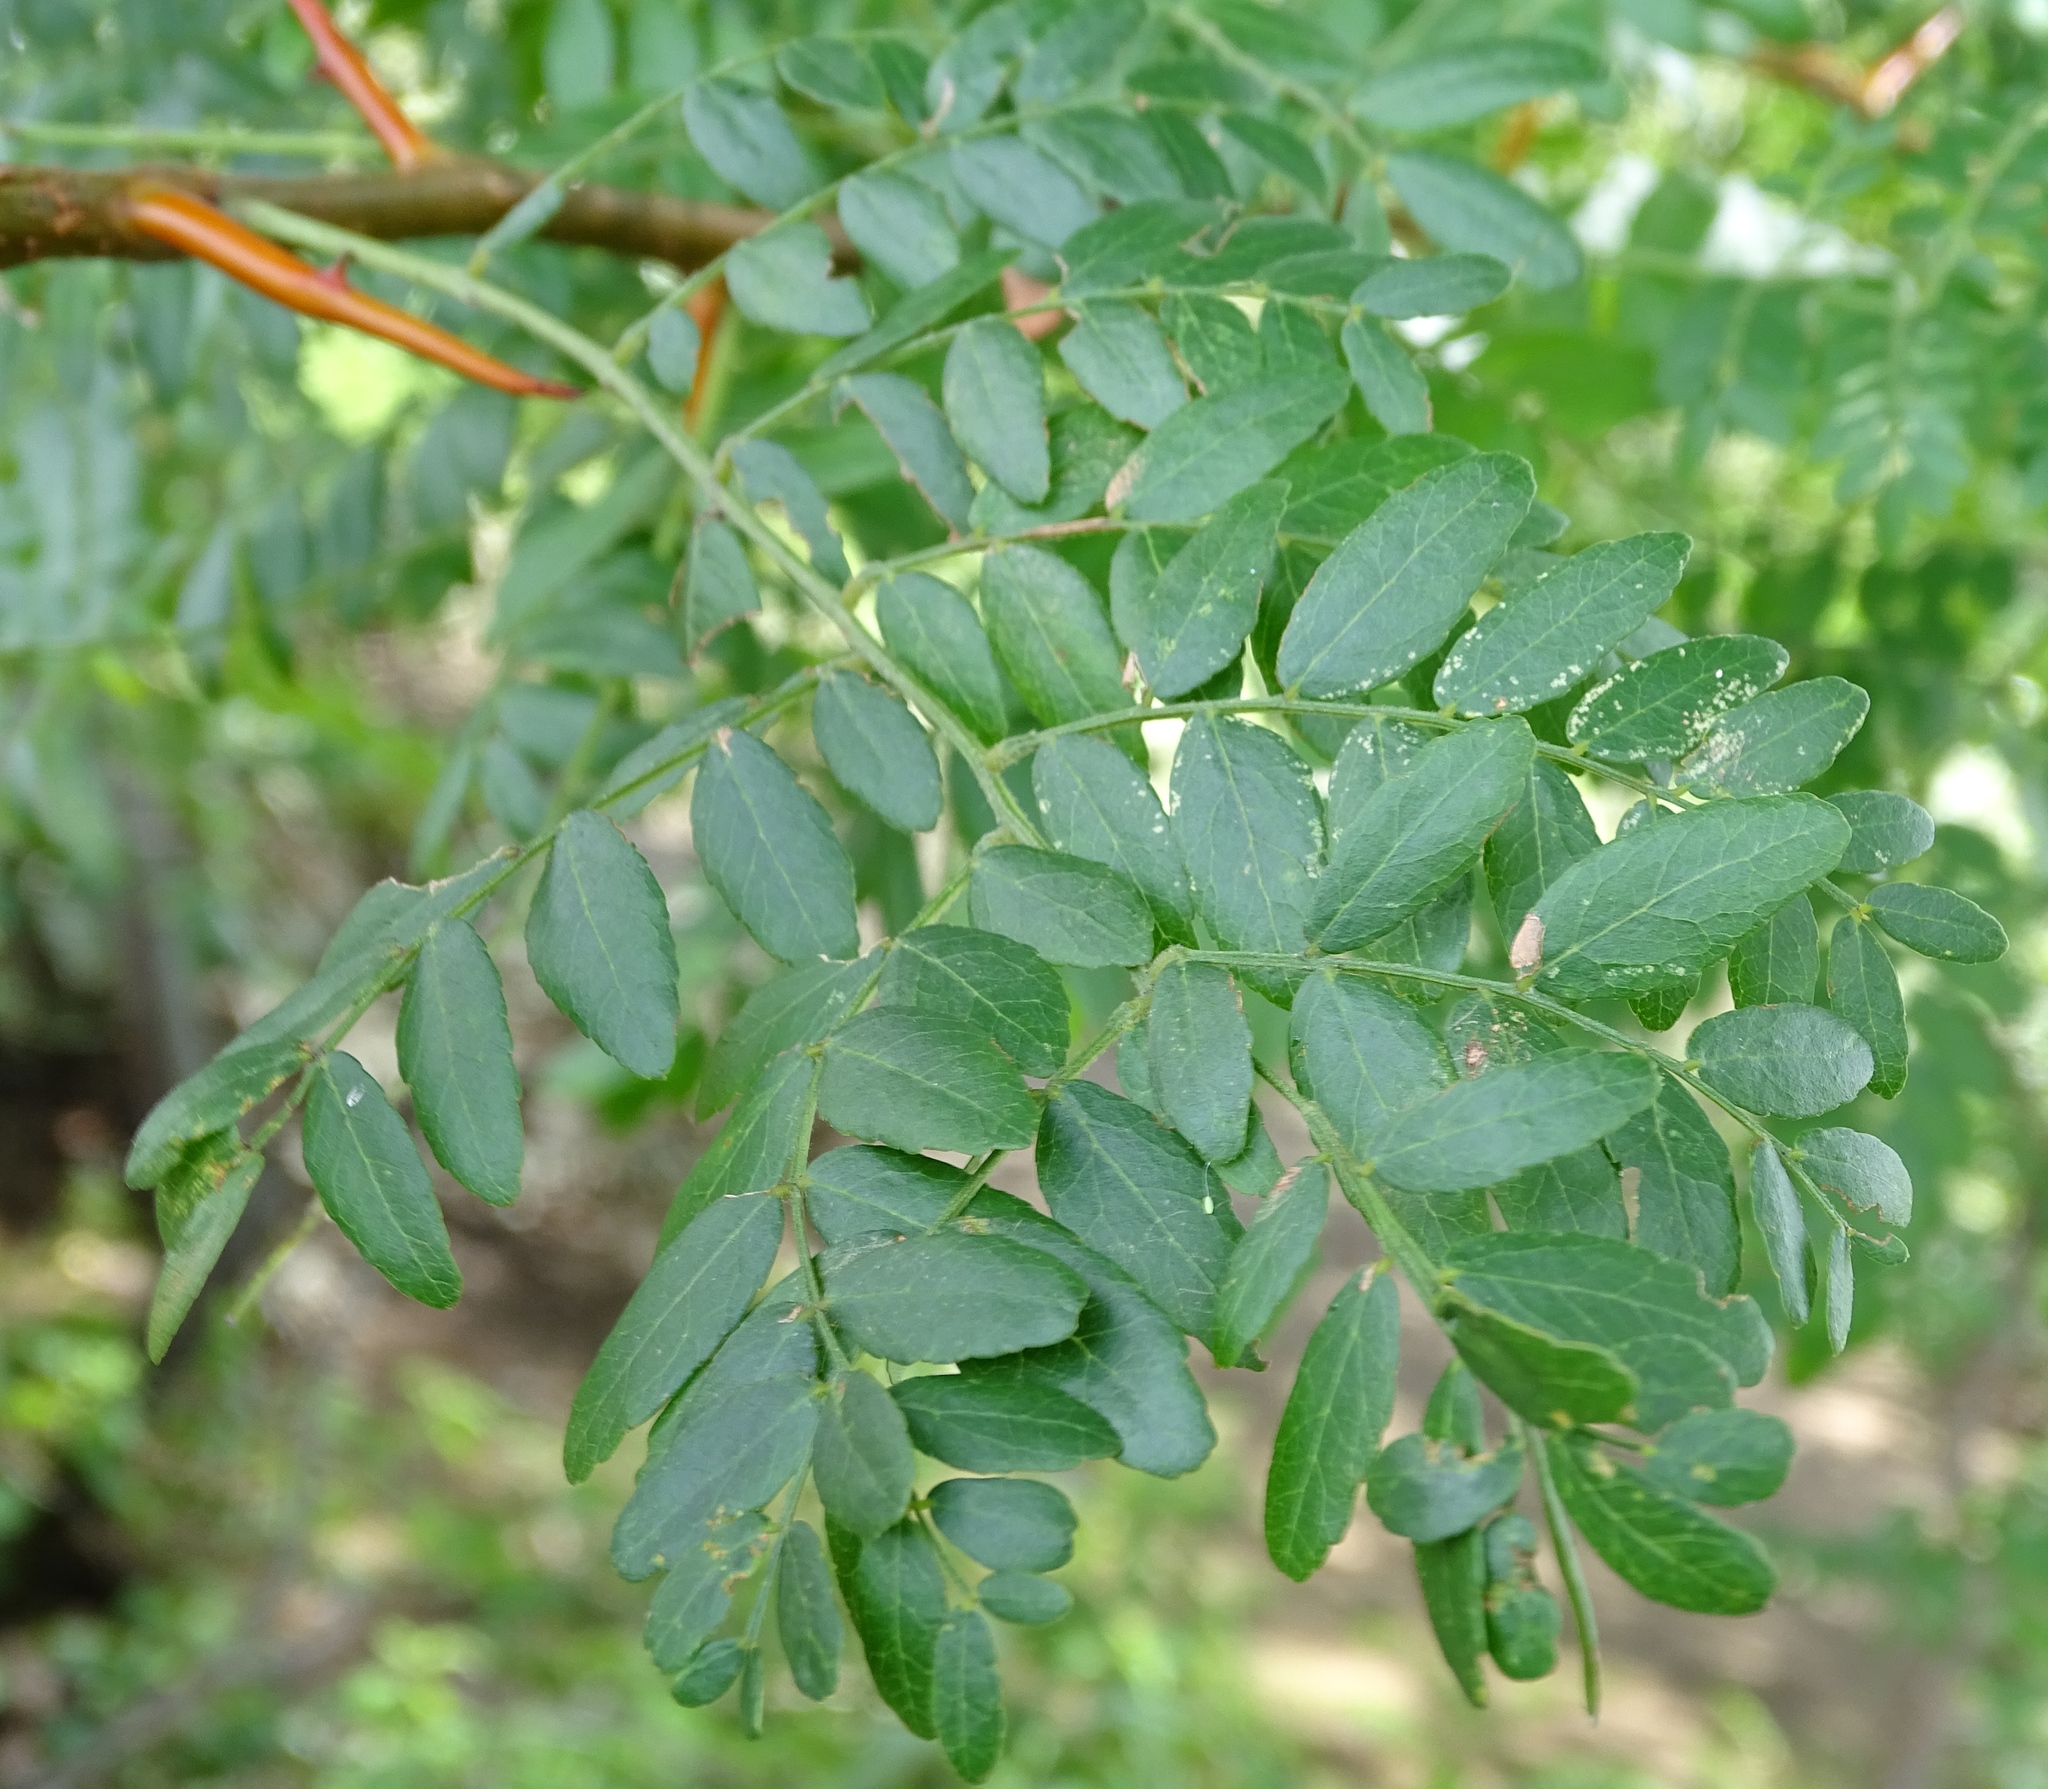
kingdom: Plantae
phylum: Tracheophyta
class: Magnoliopsida
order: Fabales
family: Fabaceae
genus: Gleditsia
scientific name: Gleditsia triacanthos
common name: Common honeylocust
